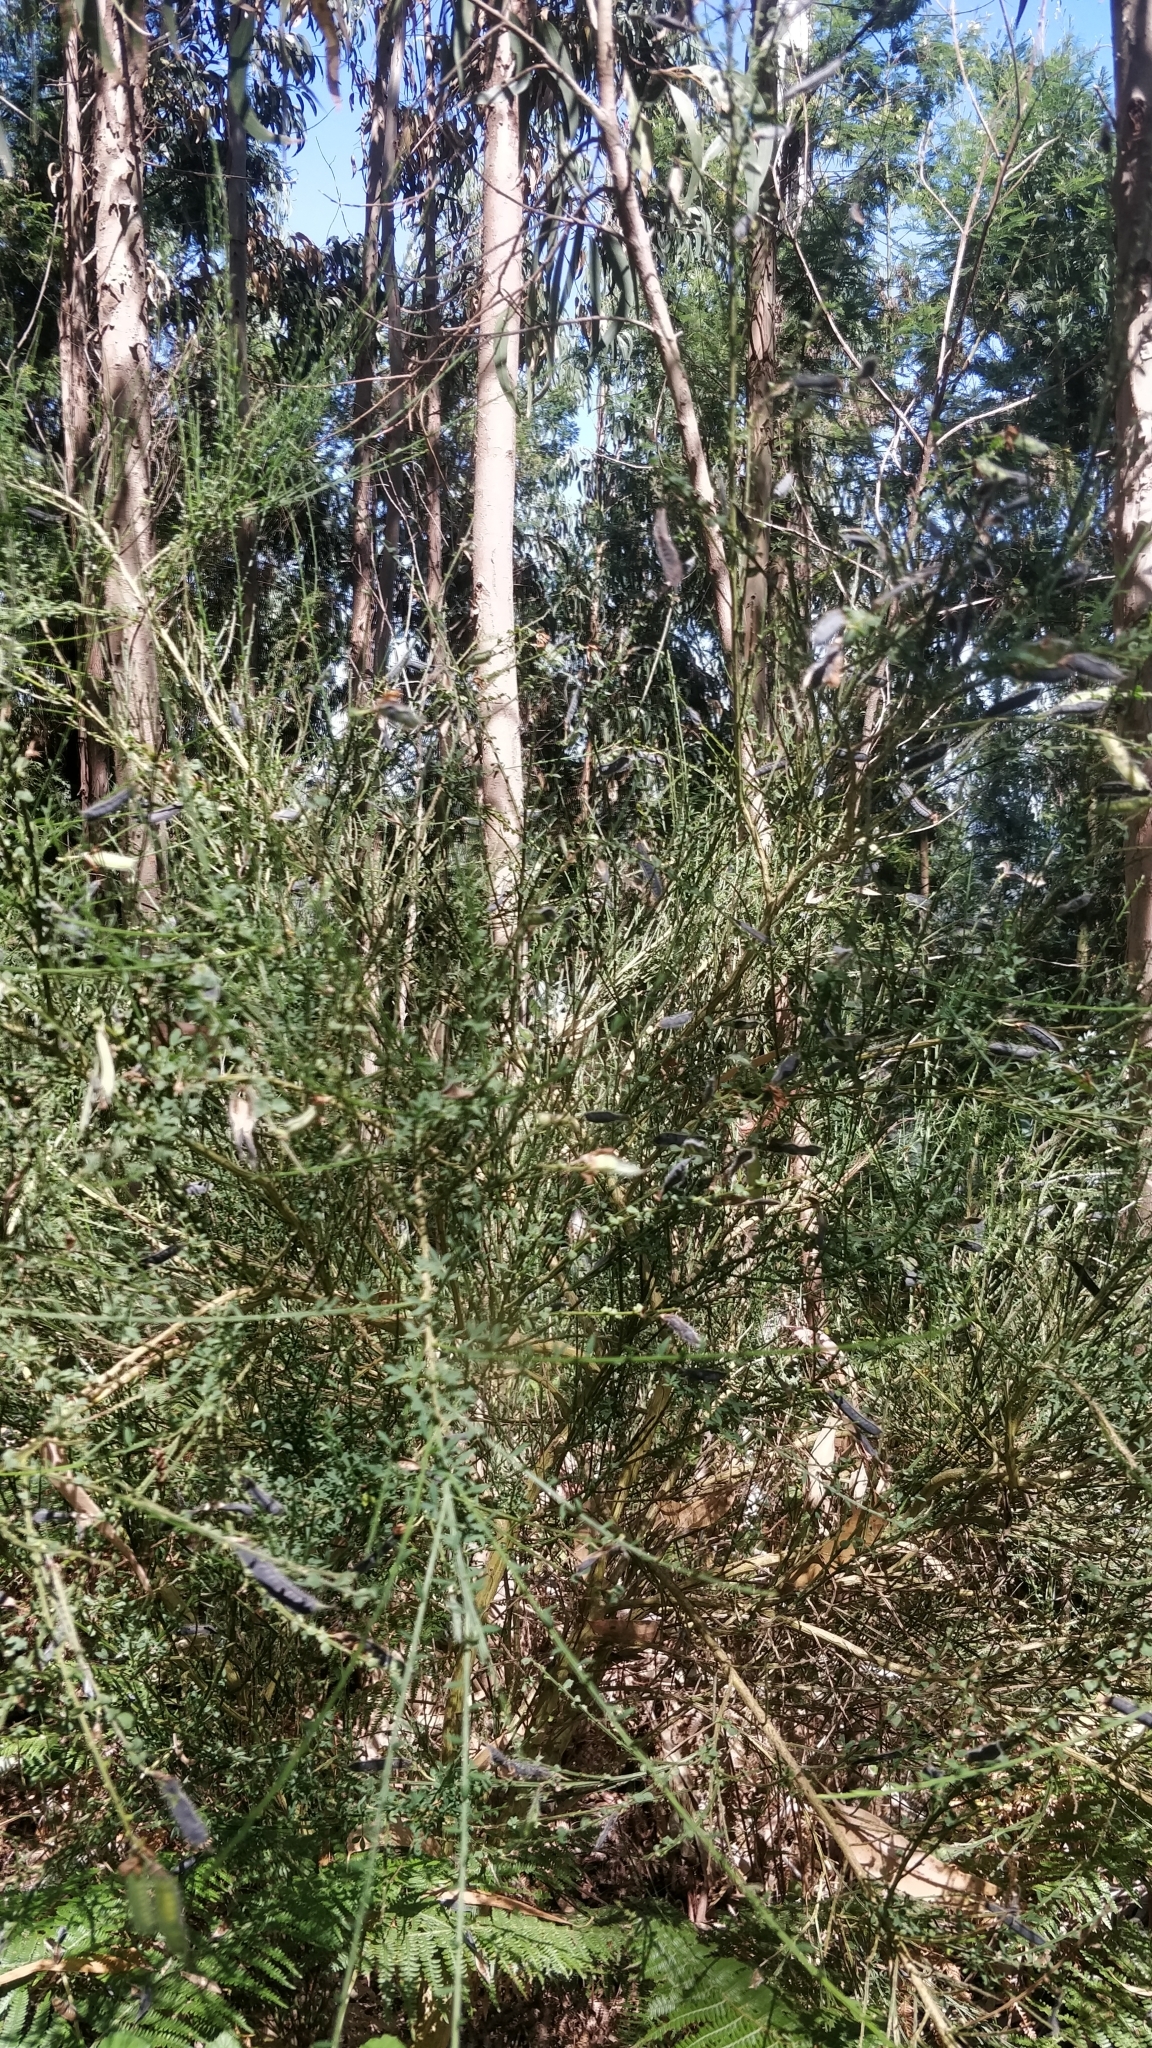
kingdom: Plantae
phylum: Tracheophyta
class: Magnoliopsida
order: Fabales
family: Fabaceae
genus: Cytisus
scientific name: Cytisus scoparius
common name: Scotch broom
